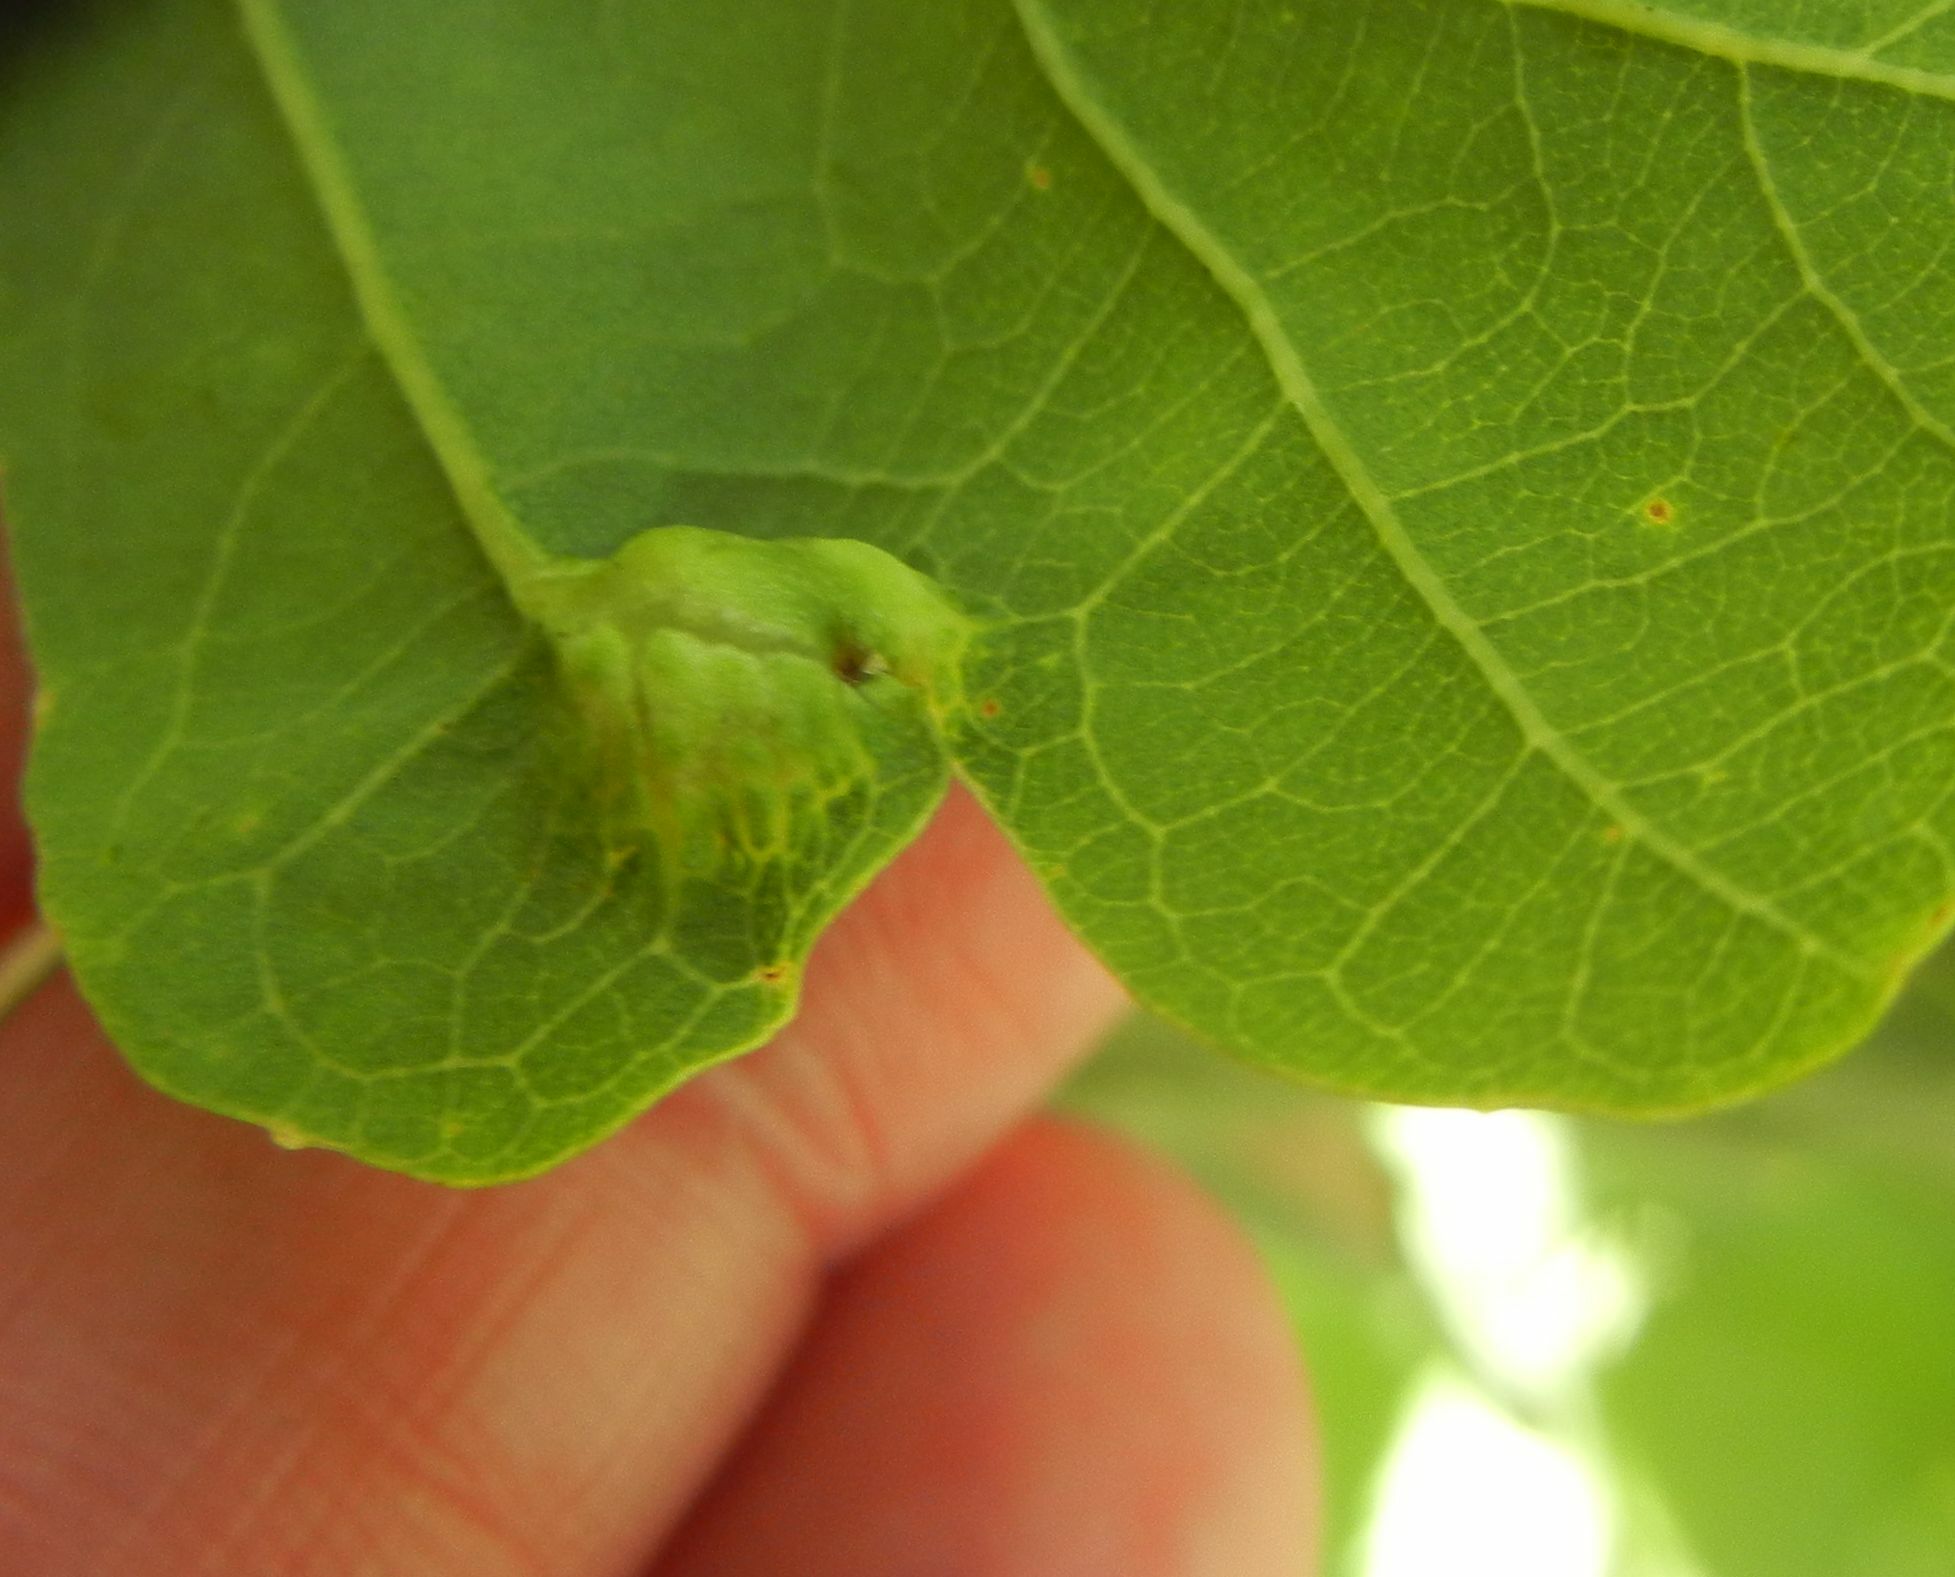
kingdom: Animalia
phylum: Arthropoda
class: Insecta
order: Hymenoptera
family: Cynipidae
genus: Andricus
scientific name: Andricus curvator
